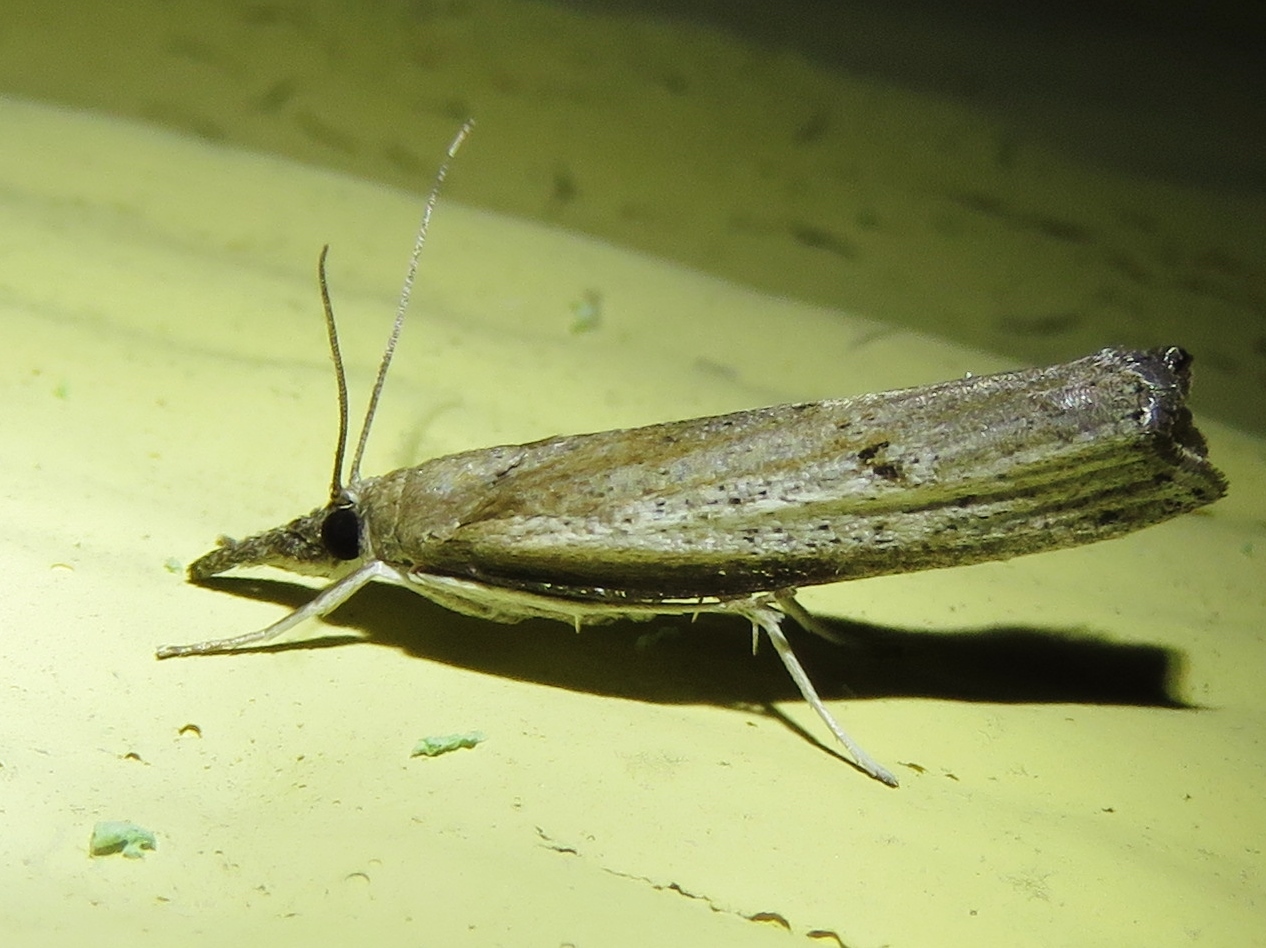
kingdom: Animalia
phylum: Arthropoda
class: Insecta
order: Lepidoptera
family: Crambidae
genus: Fissicrambus
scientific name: Fissicrambus mutabilis
